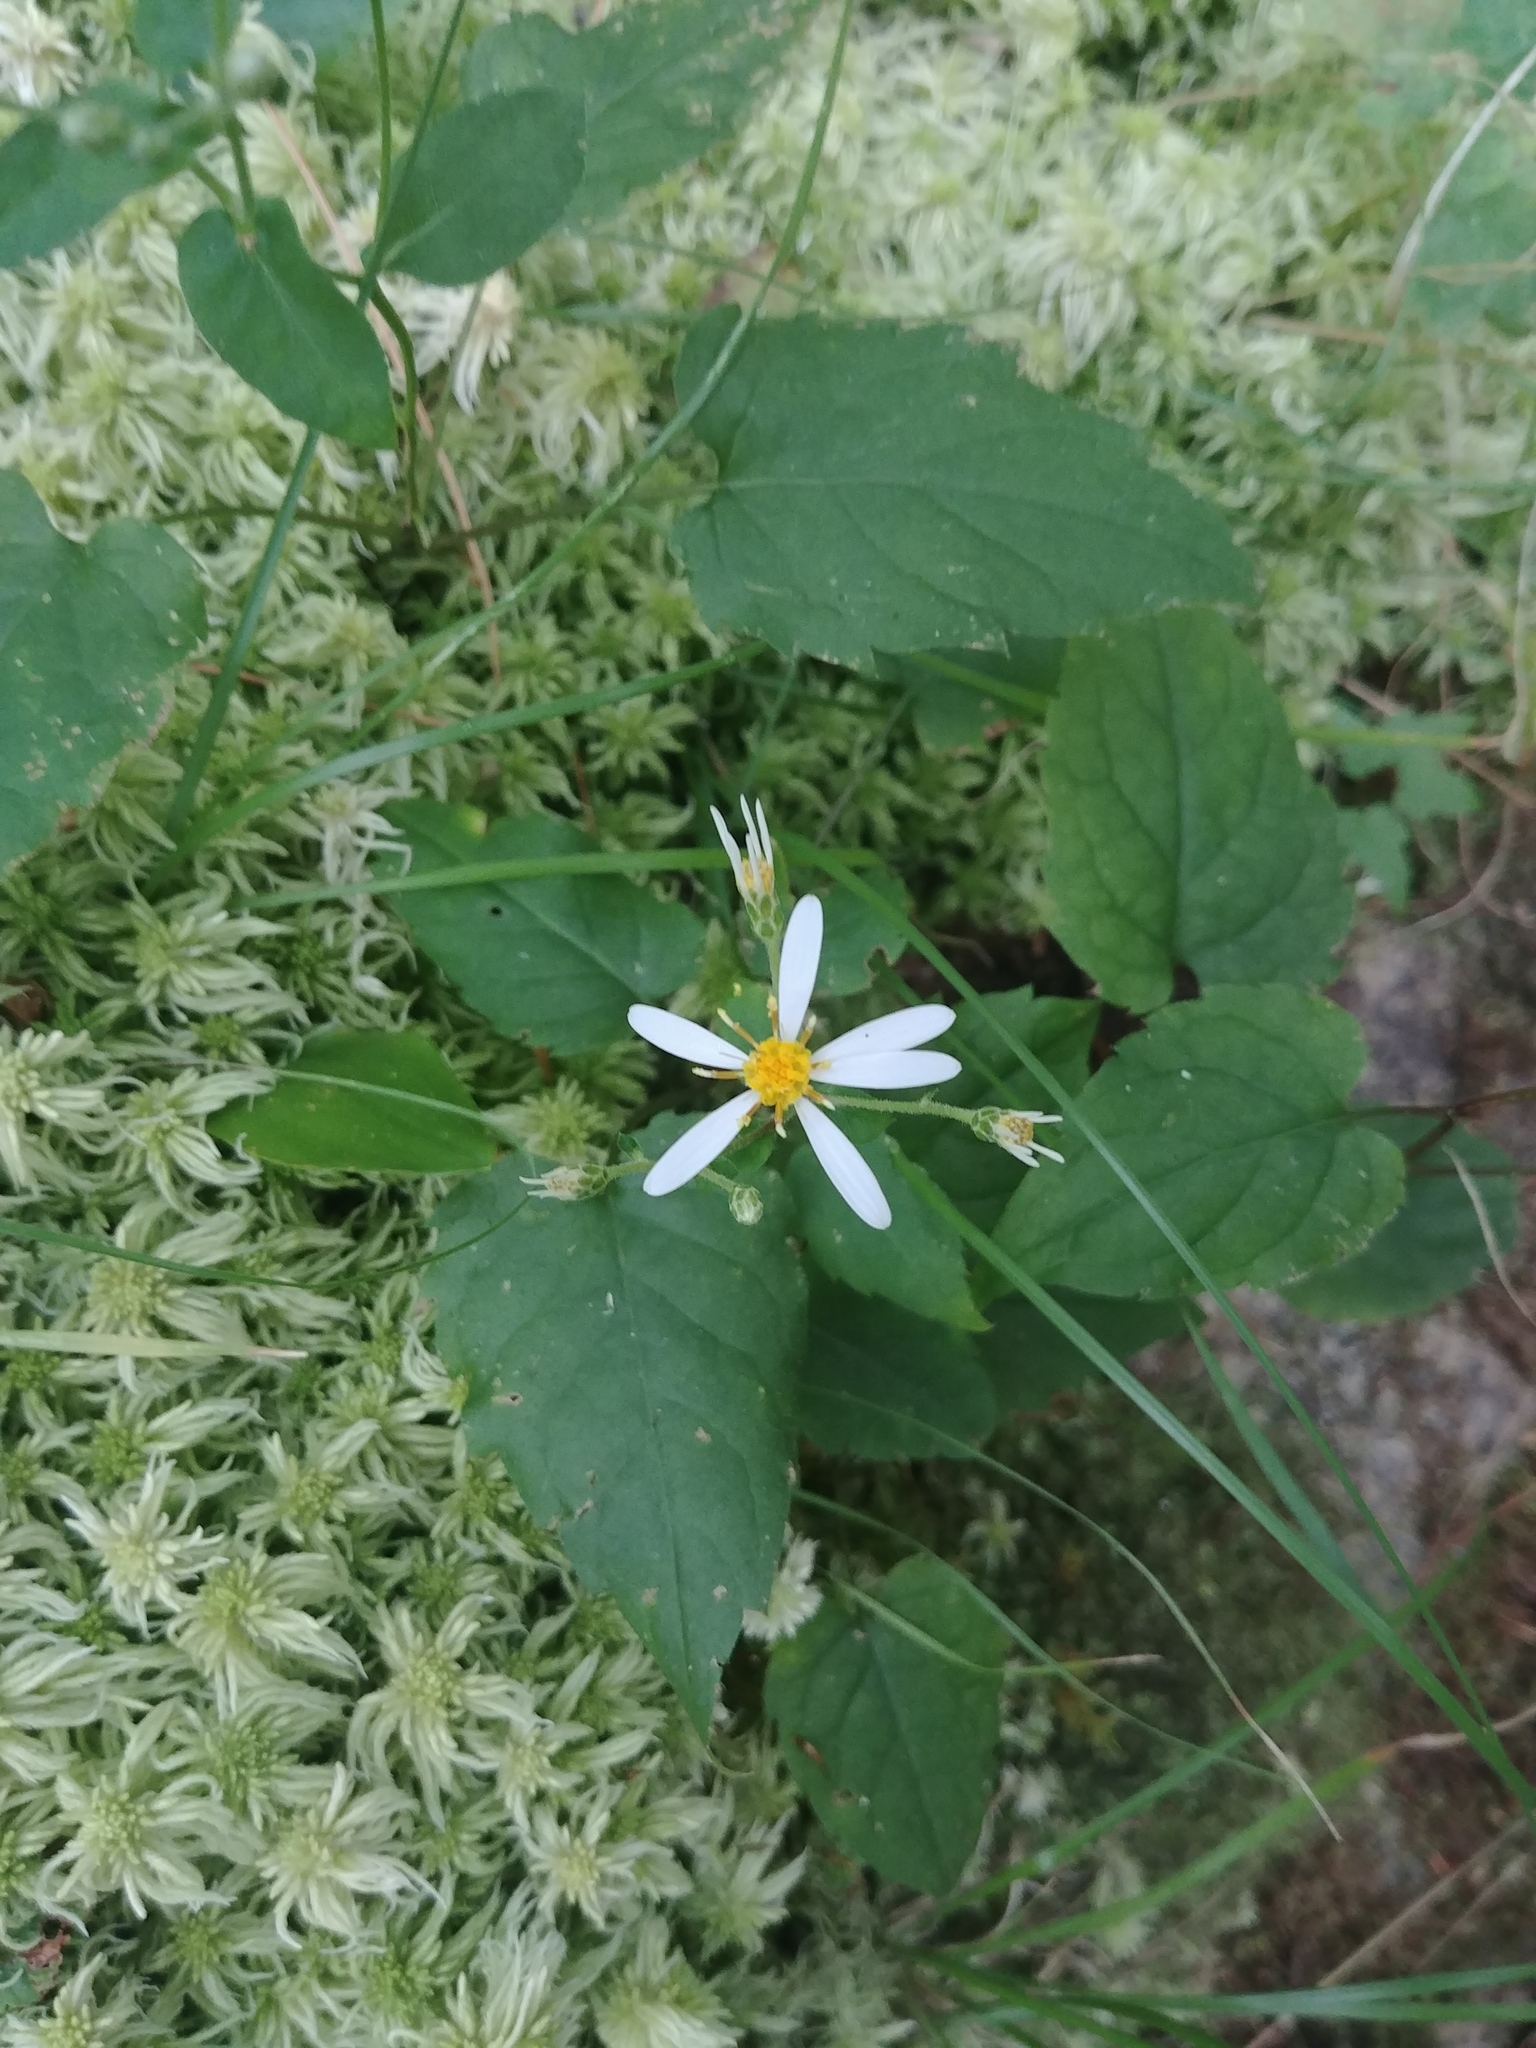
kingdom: Plantae
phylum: Tracheophyta
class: Magnoliopsida
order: Asterales
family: Asteraceae
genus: Eurybia
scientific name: Eurybia divaricata
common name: White wood aster
